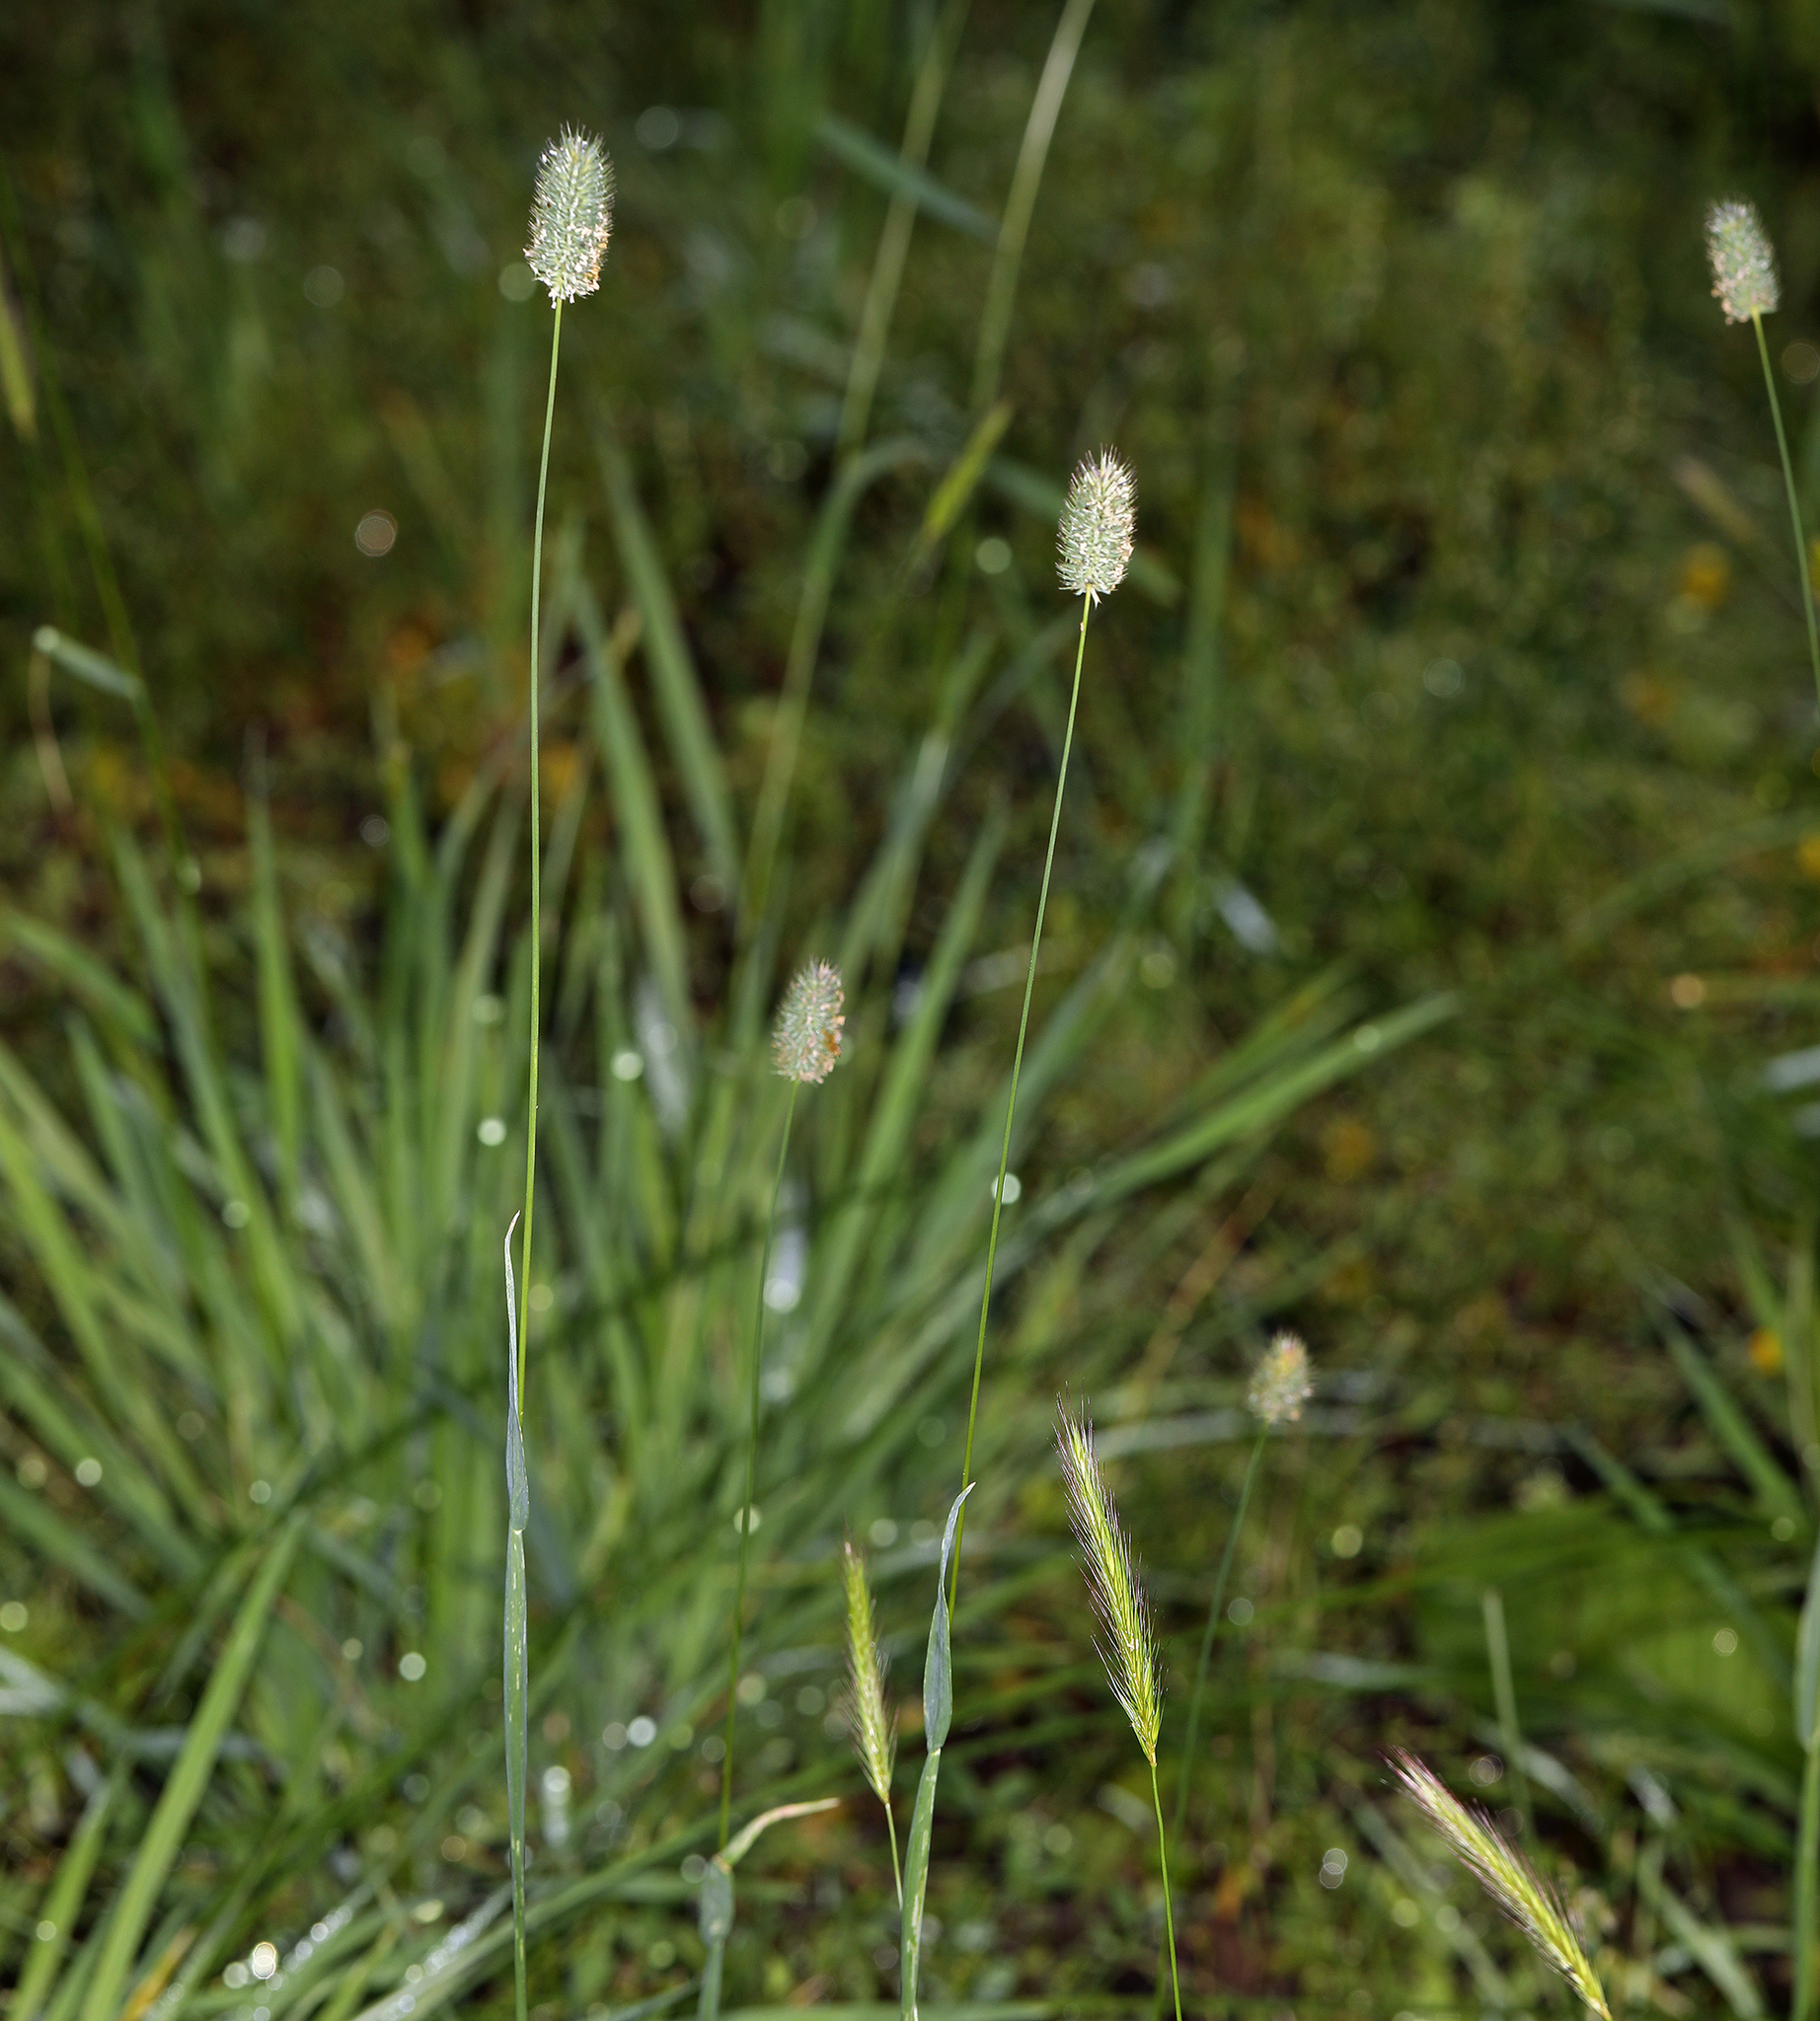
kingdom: Plantae
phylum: Tracheophyta
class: Liliopsida
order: Poales
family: Poaceae
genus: Phleum
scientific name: Phleum alpinum
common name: Alpine cat's-tail
